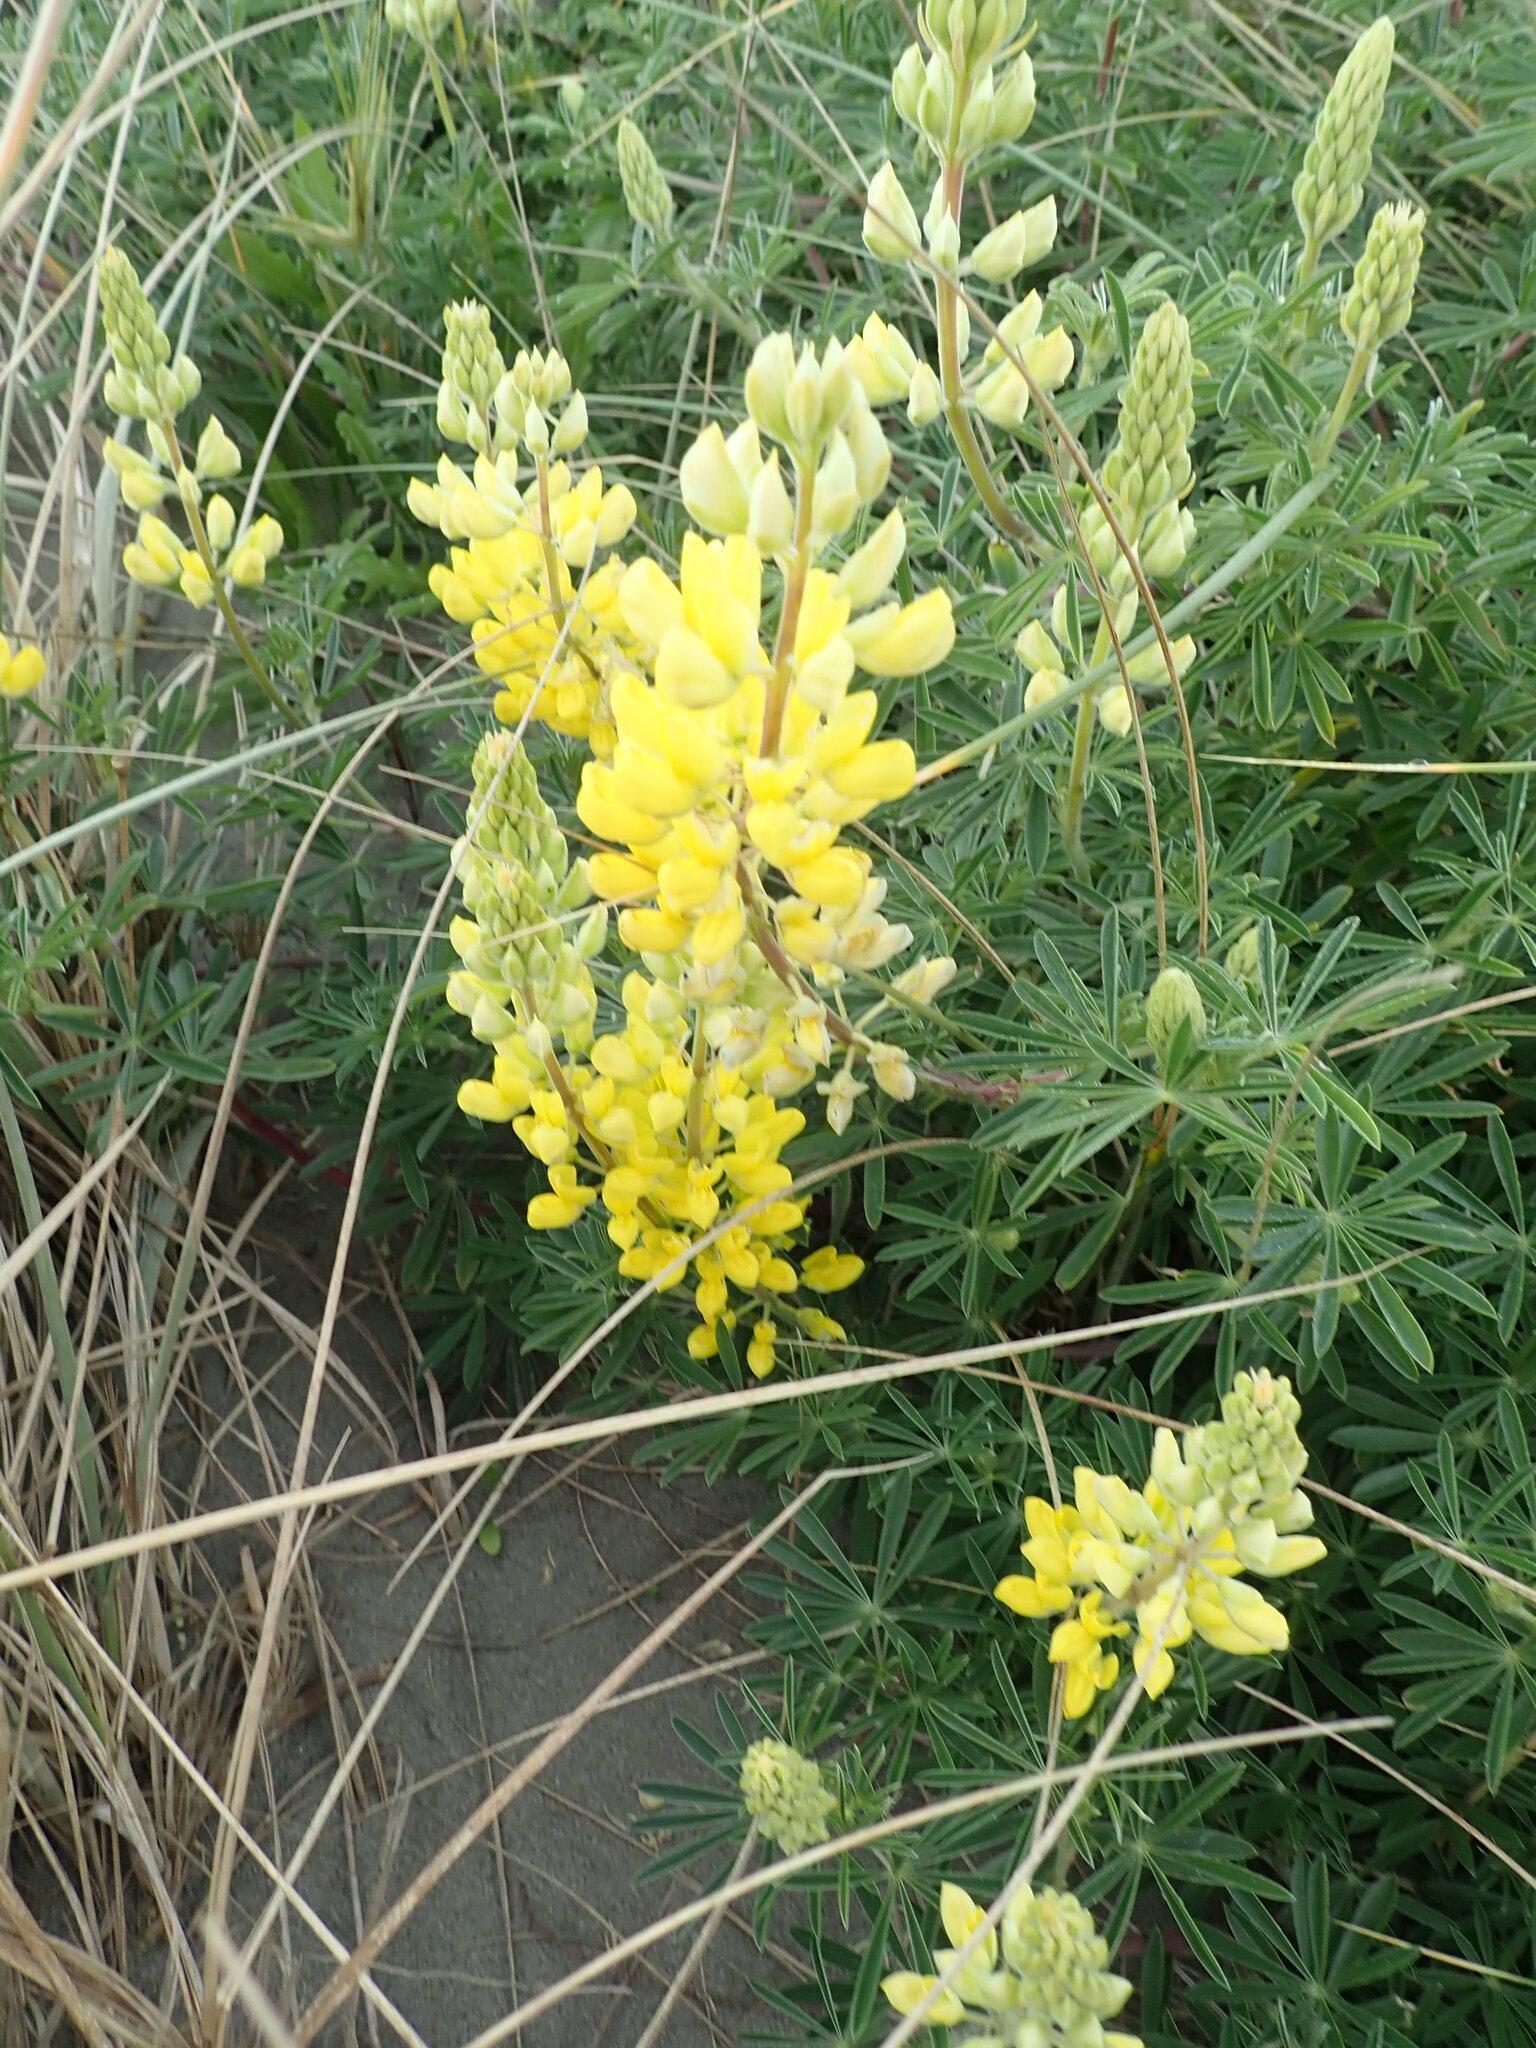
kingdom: Plantae
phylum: Tracheophyta
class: Magnoliopsida
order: Fabales
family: Fabaceae
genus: Lupinus
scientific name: Lupinus arboreus
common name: Yellow bush lupine
